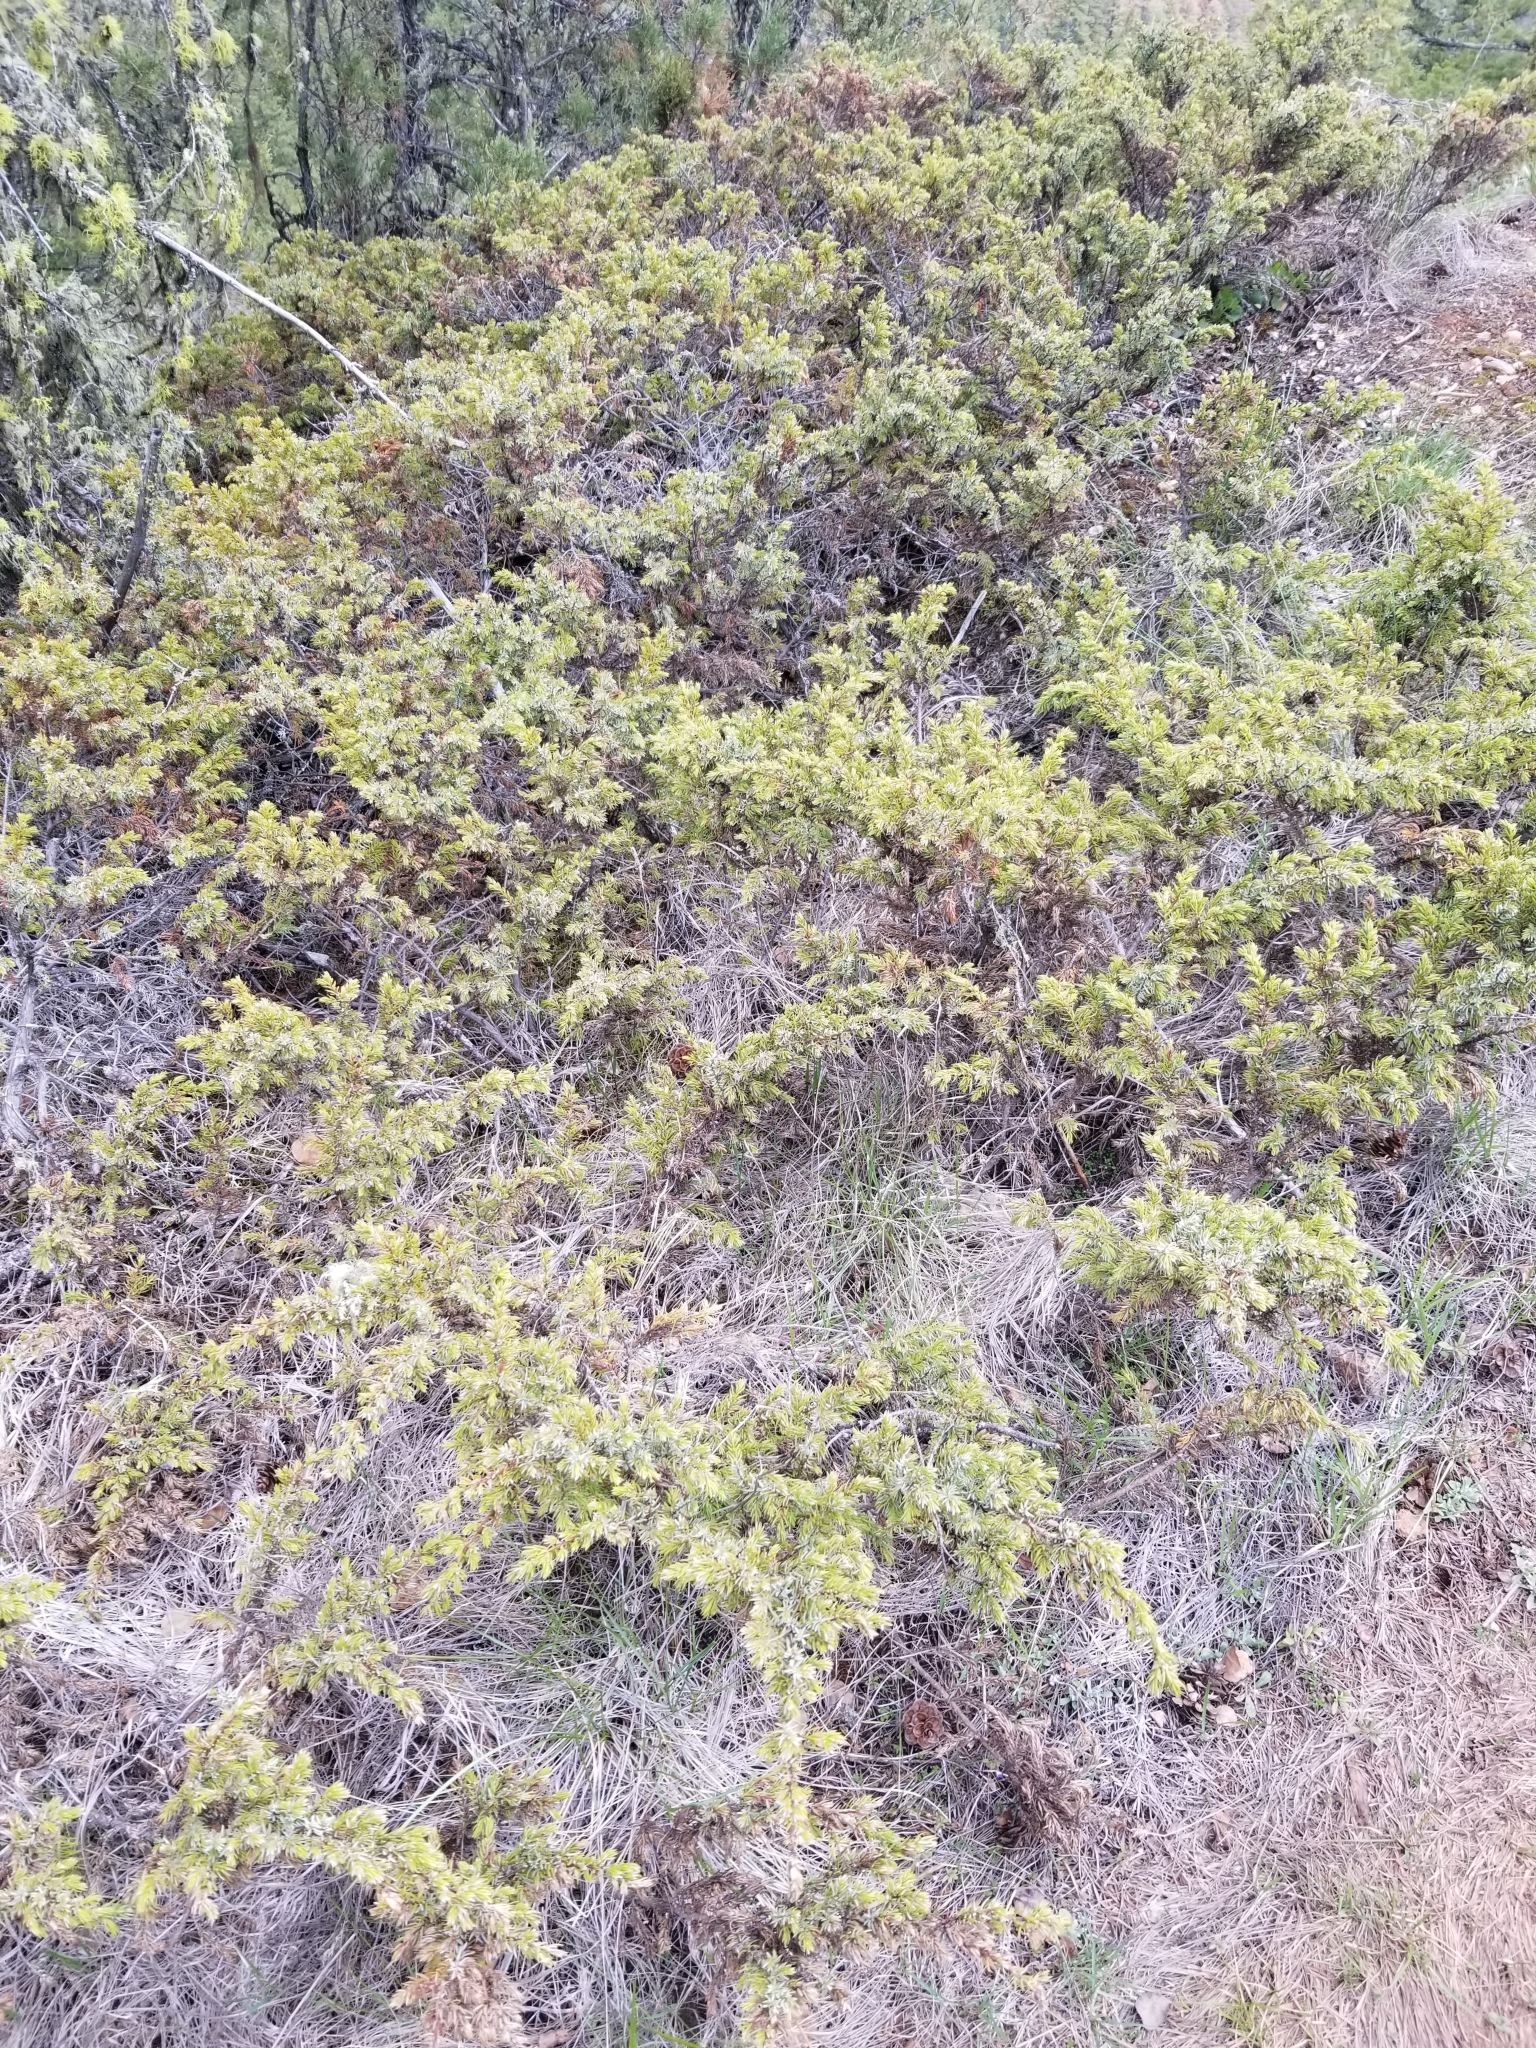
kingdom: Plantae
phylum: Tracheophyta
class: Pinopsida
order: Pinales
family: Cupressaceae
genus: Juniperus
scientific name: Juniperus communis
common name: Common juniper
